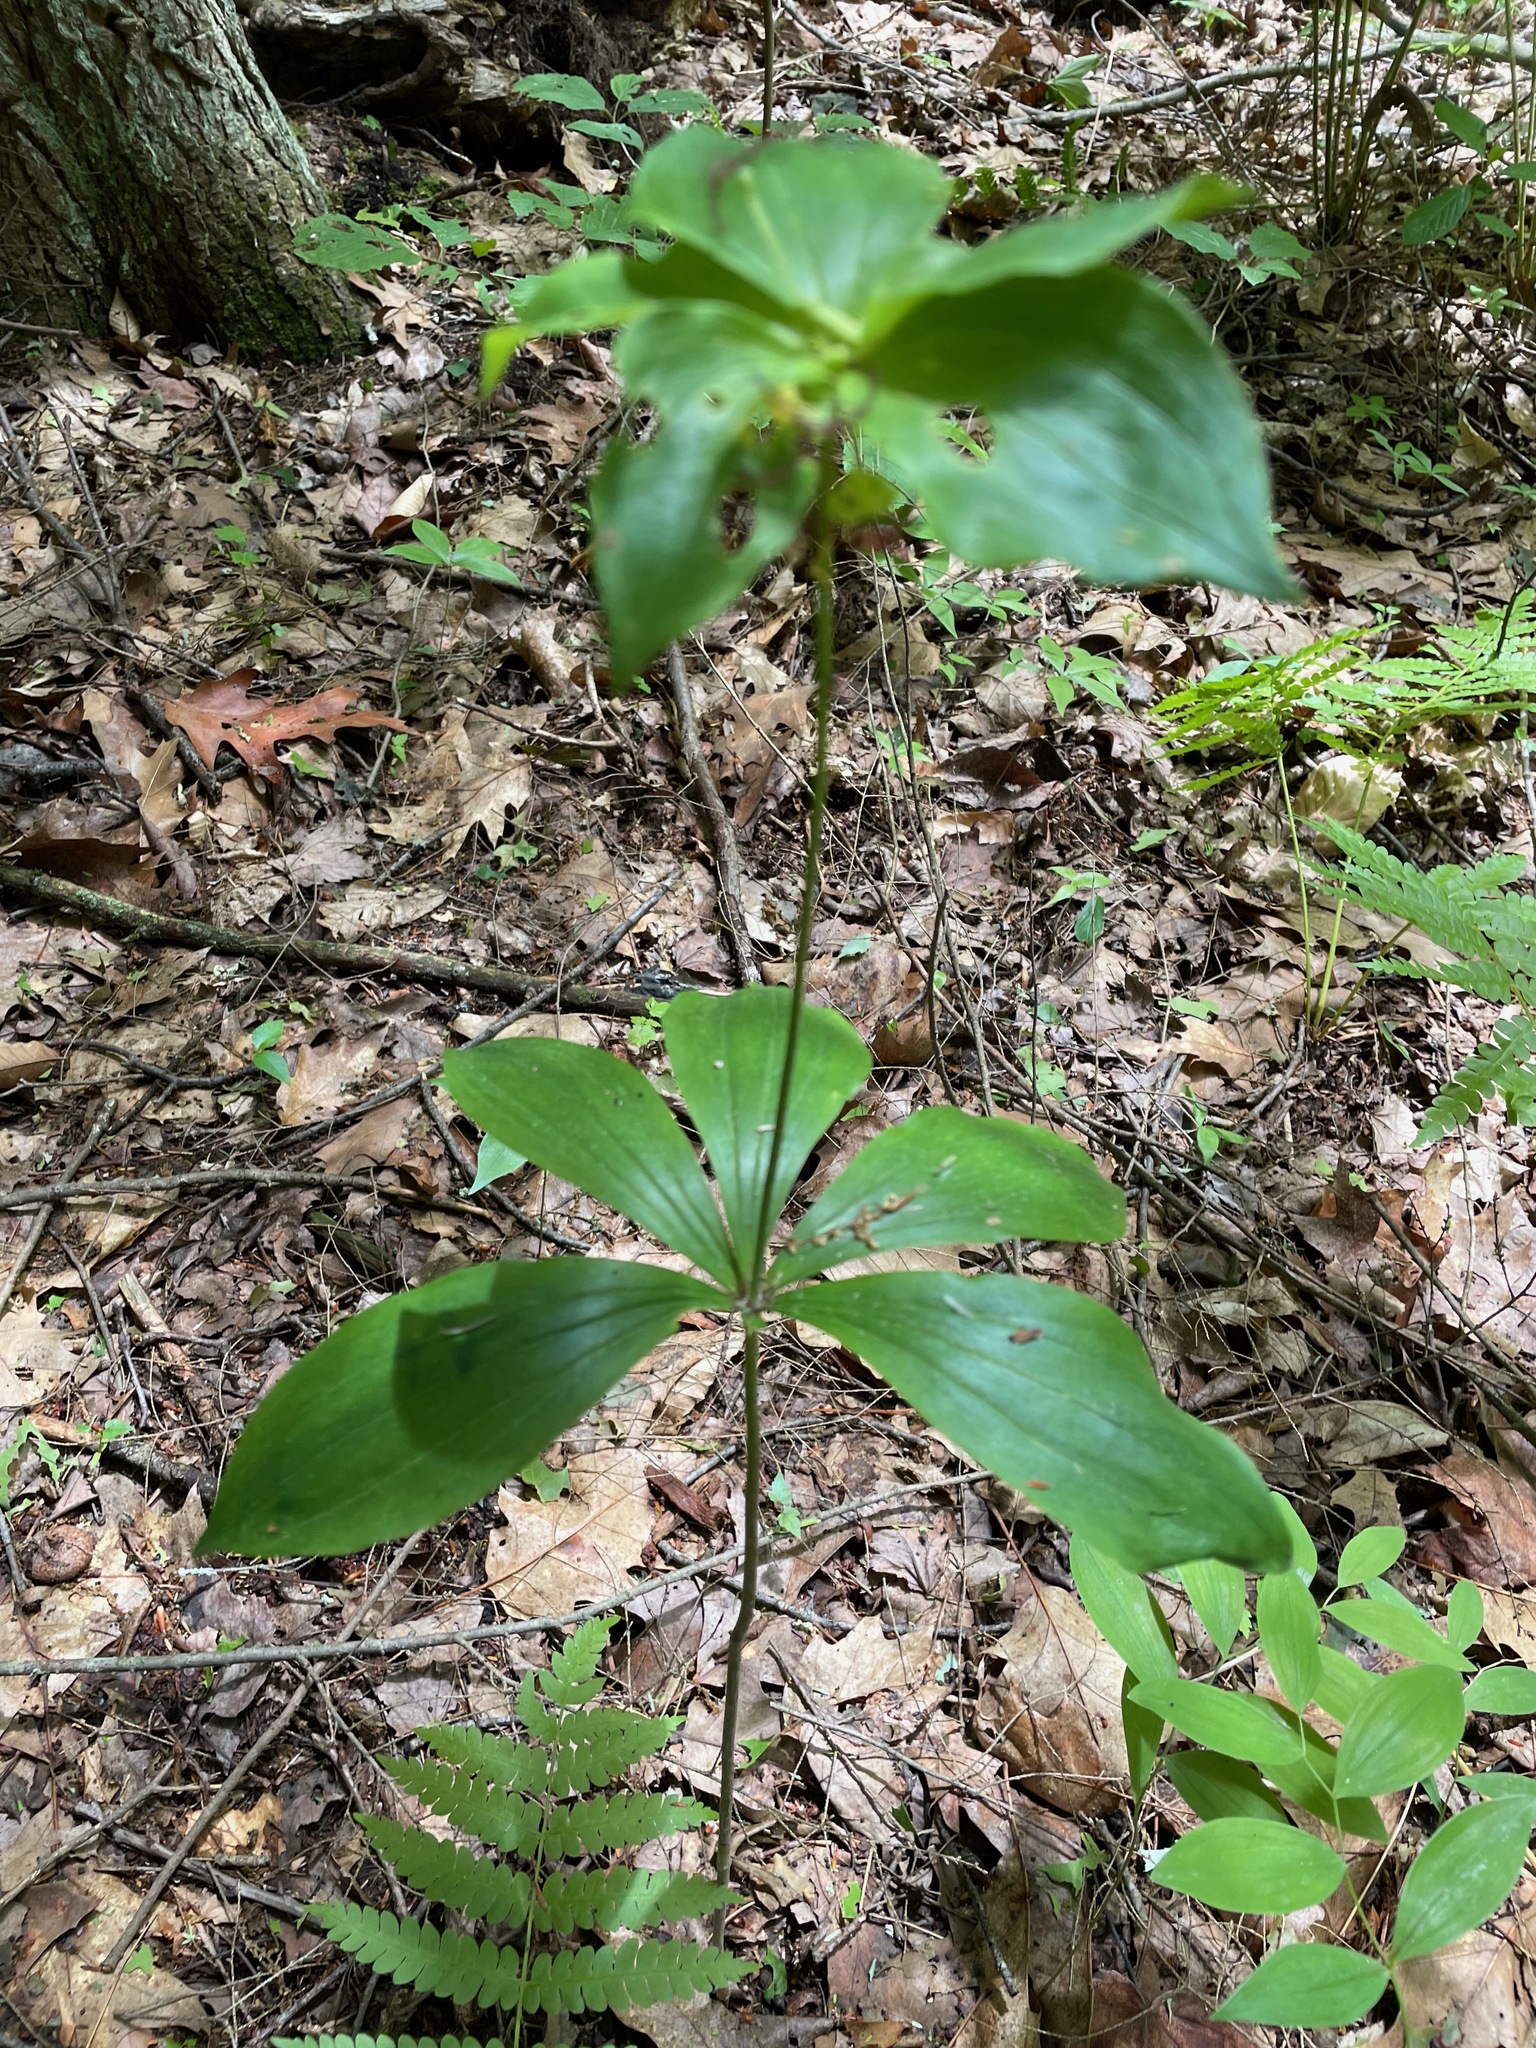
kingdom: Plantae
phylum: Tracheophyta
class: Liliopsida
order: Liliales
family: Liliaceae
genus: Medeola
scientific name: Medeola virginiana
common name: Indian cucumber-root
